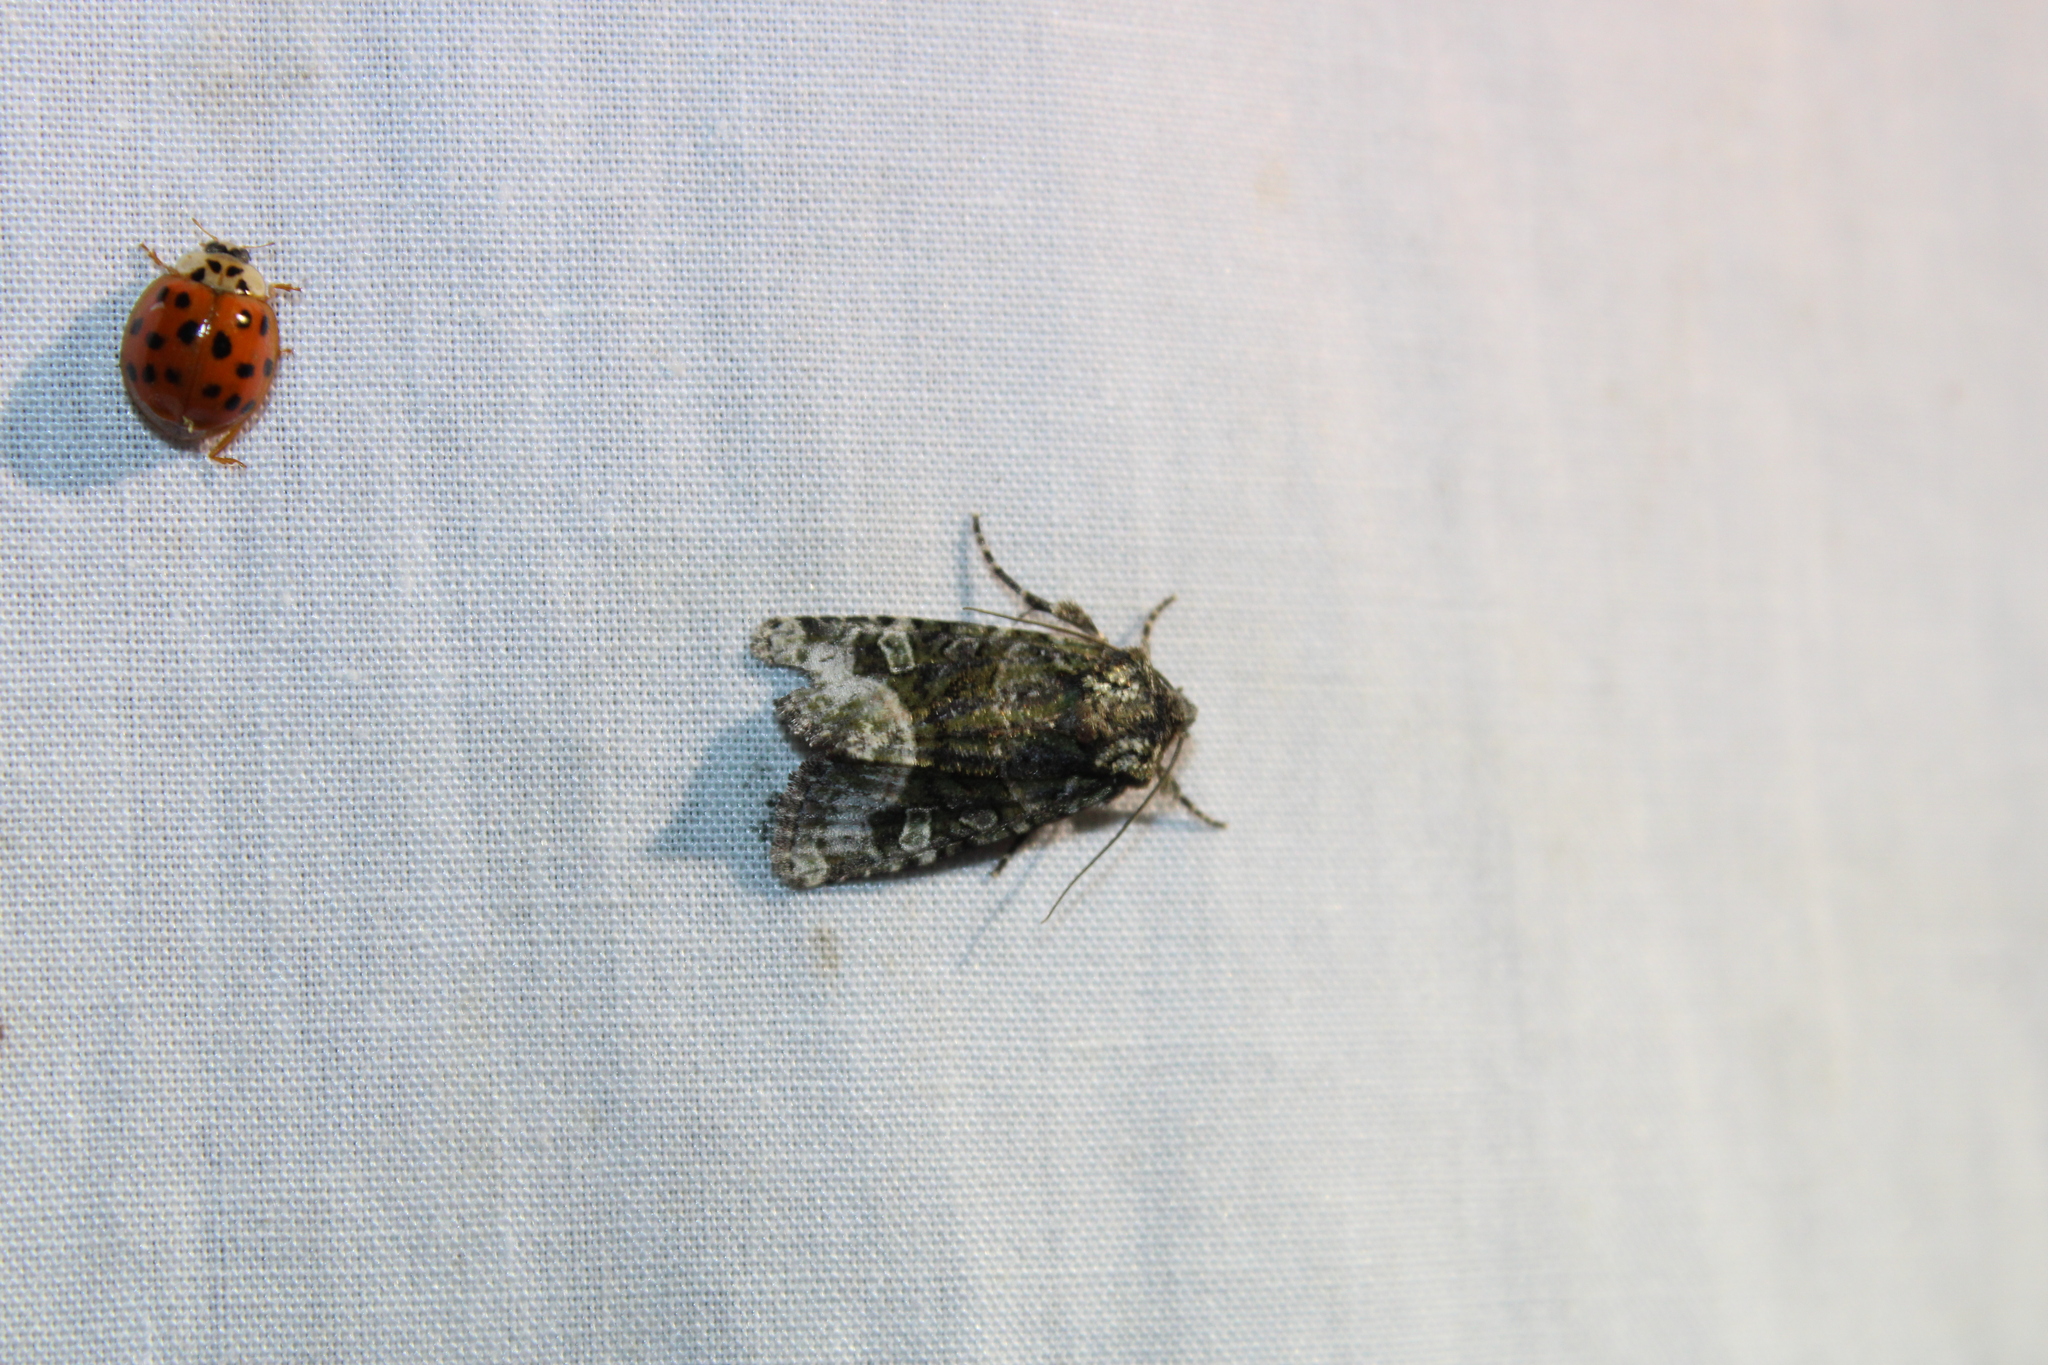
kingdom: Animalia
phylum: Arthropoda
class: Insecta
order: Lepidoptera
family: Noctuidae
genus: Lacinipolia
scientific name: Lacinipolia olivacea
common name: Olive arches moth
